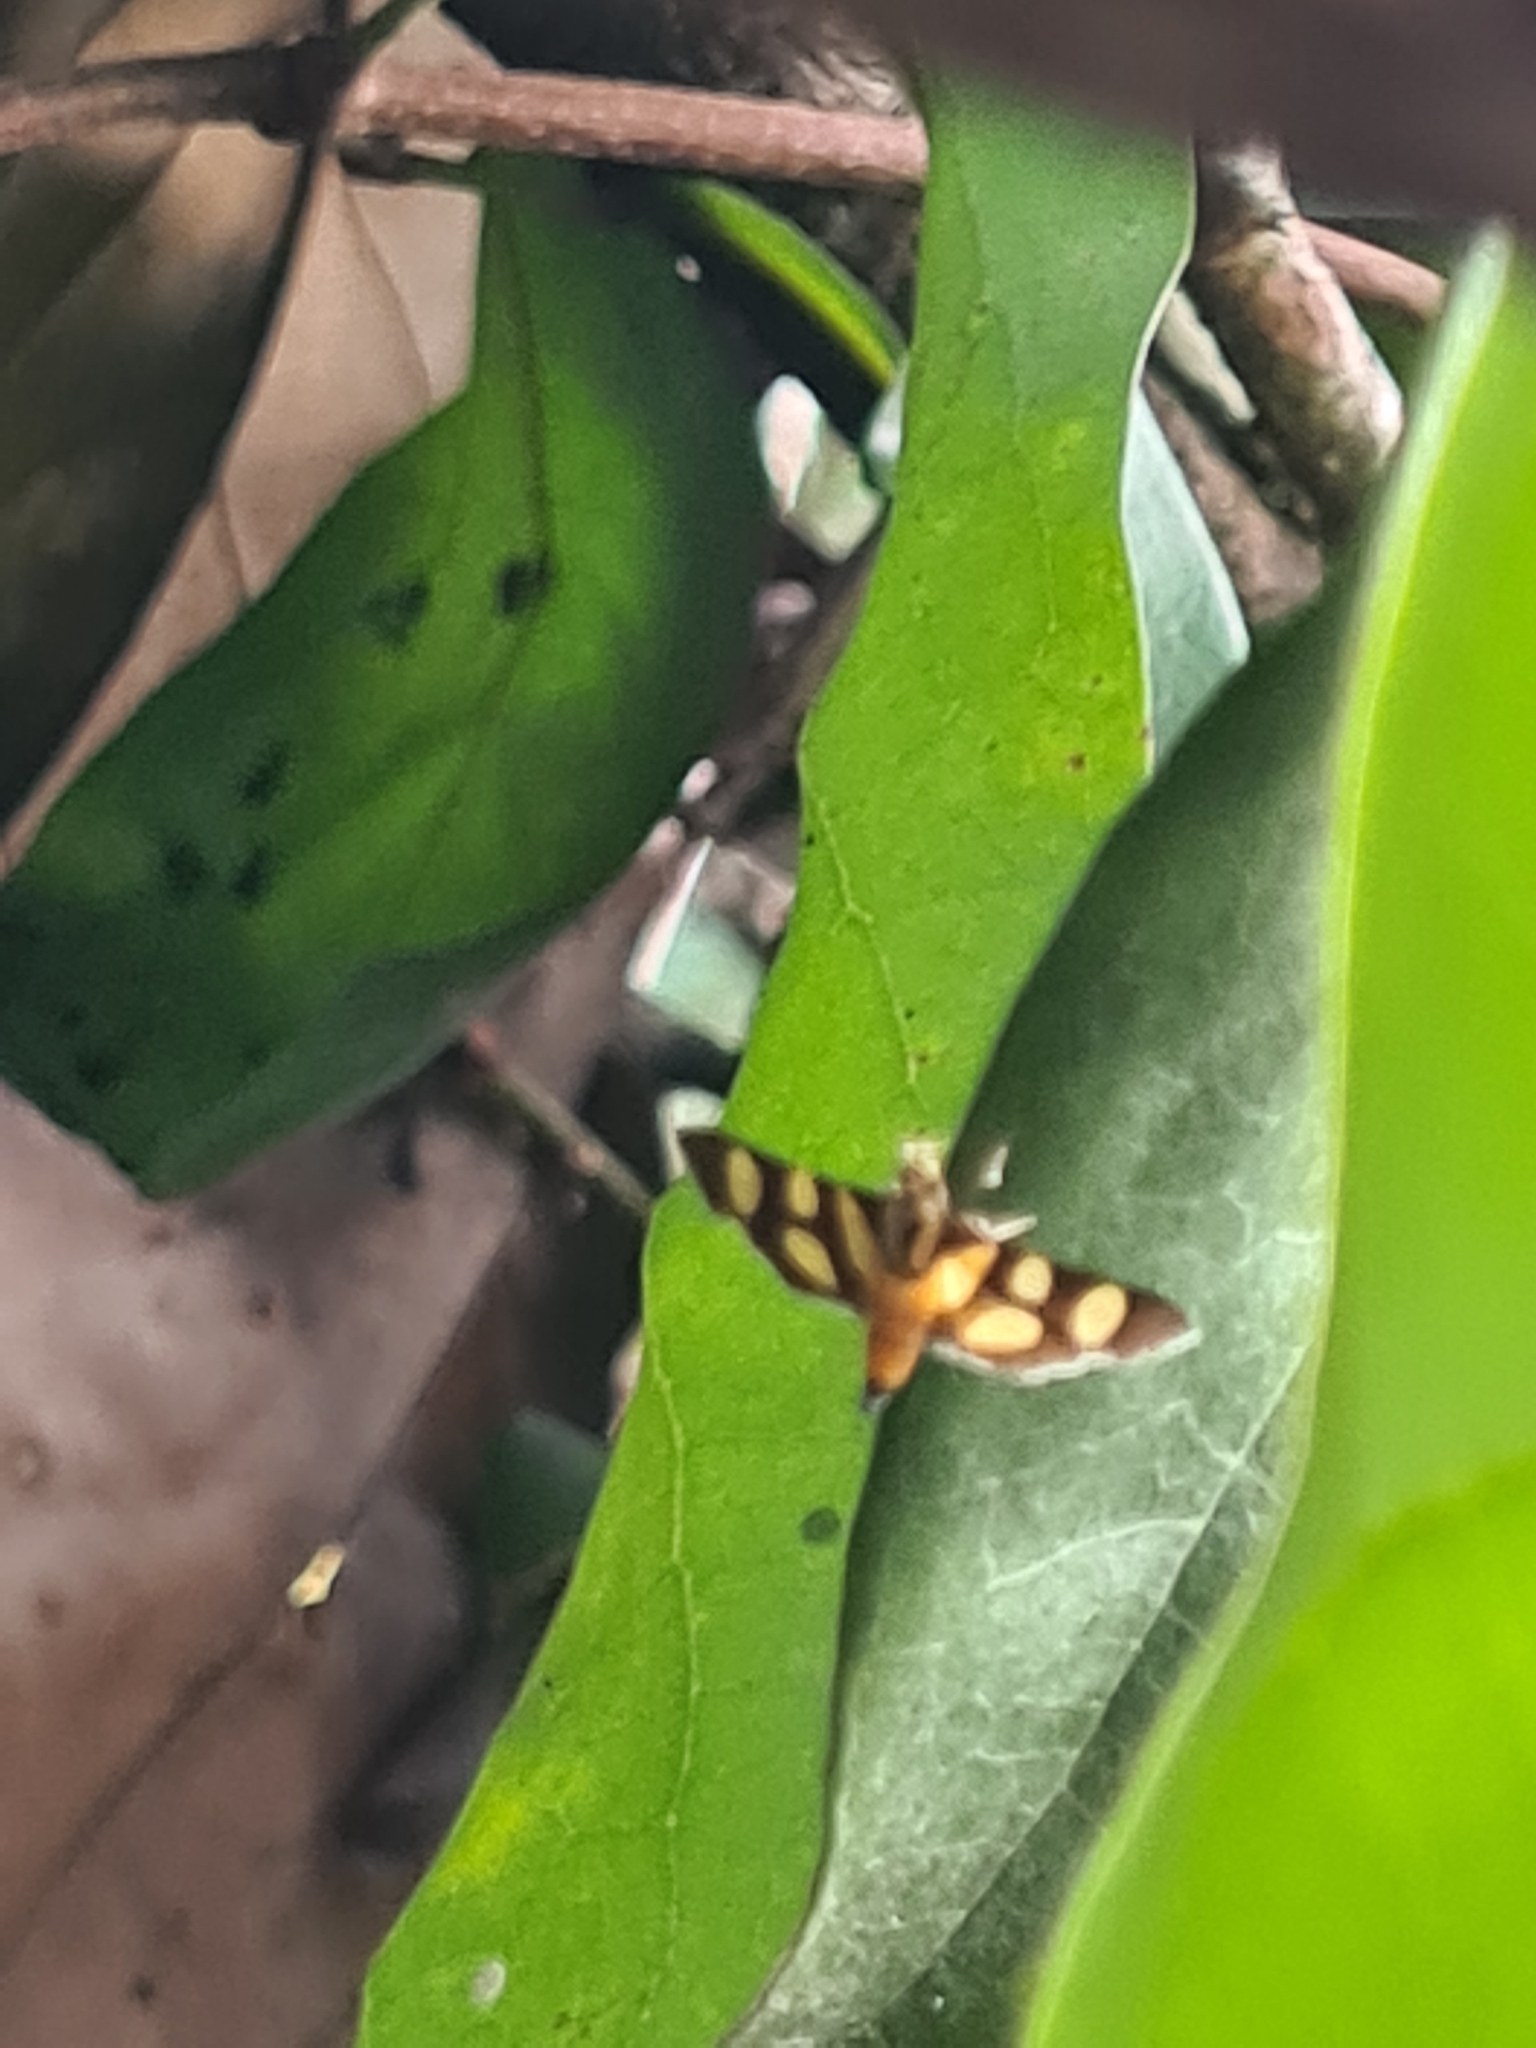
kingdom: Animalia
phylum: Arthropoda
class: Insecta
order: Lepidoptera
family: Crambidae
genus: Syngamia
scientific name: Syngamia florella
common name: Orange-spotted flower moth
